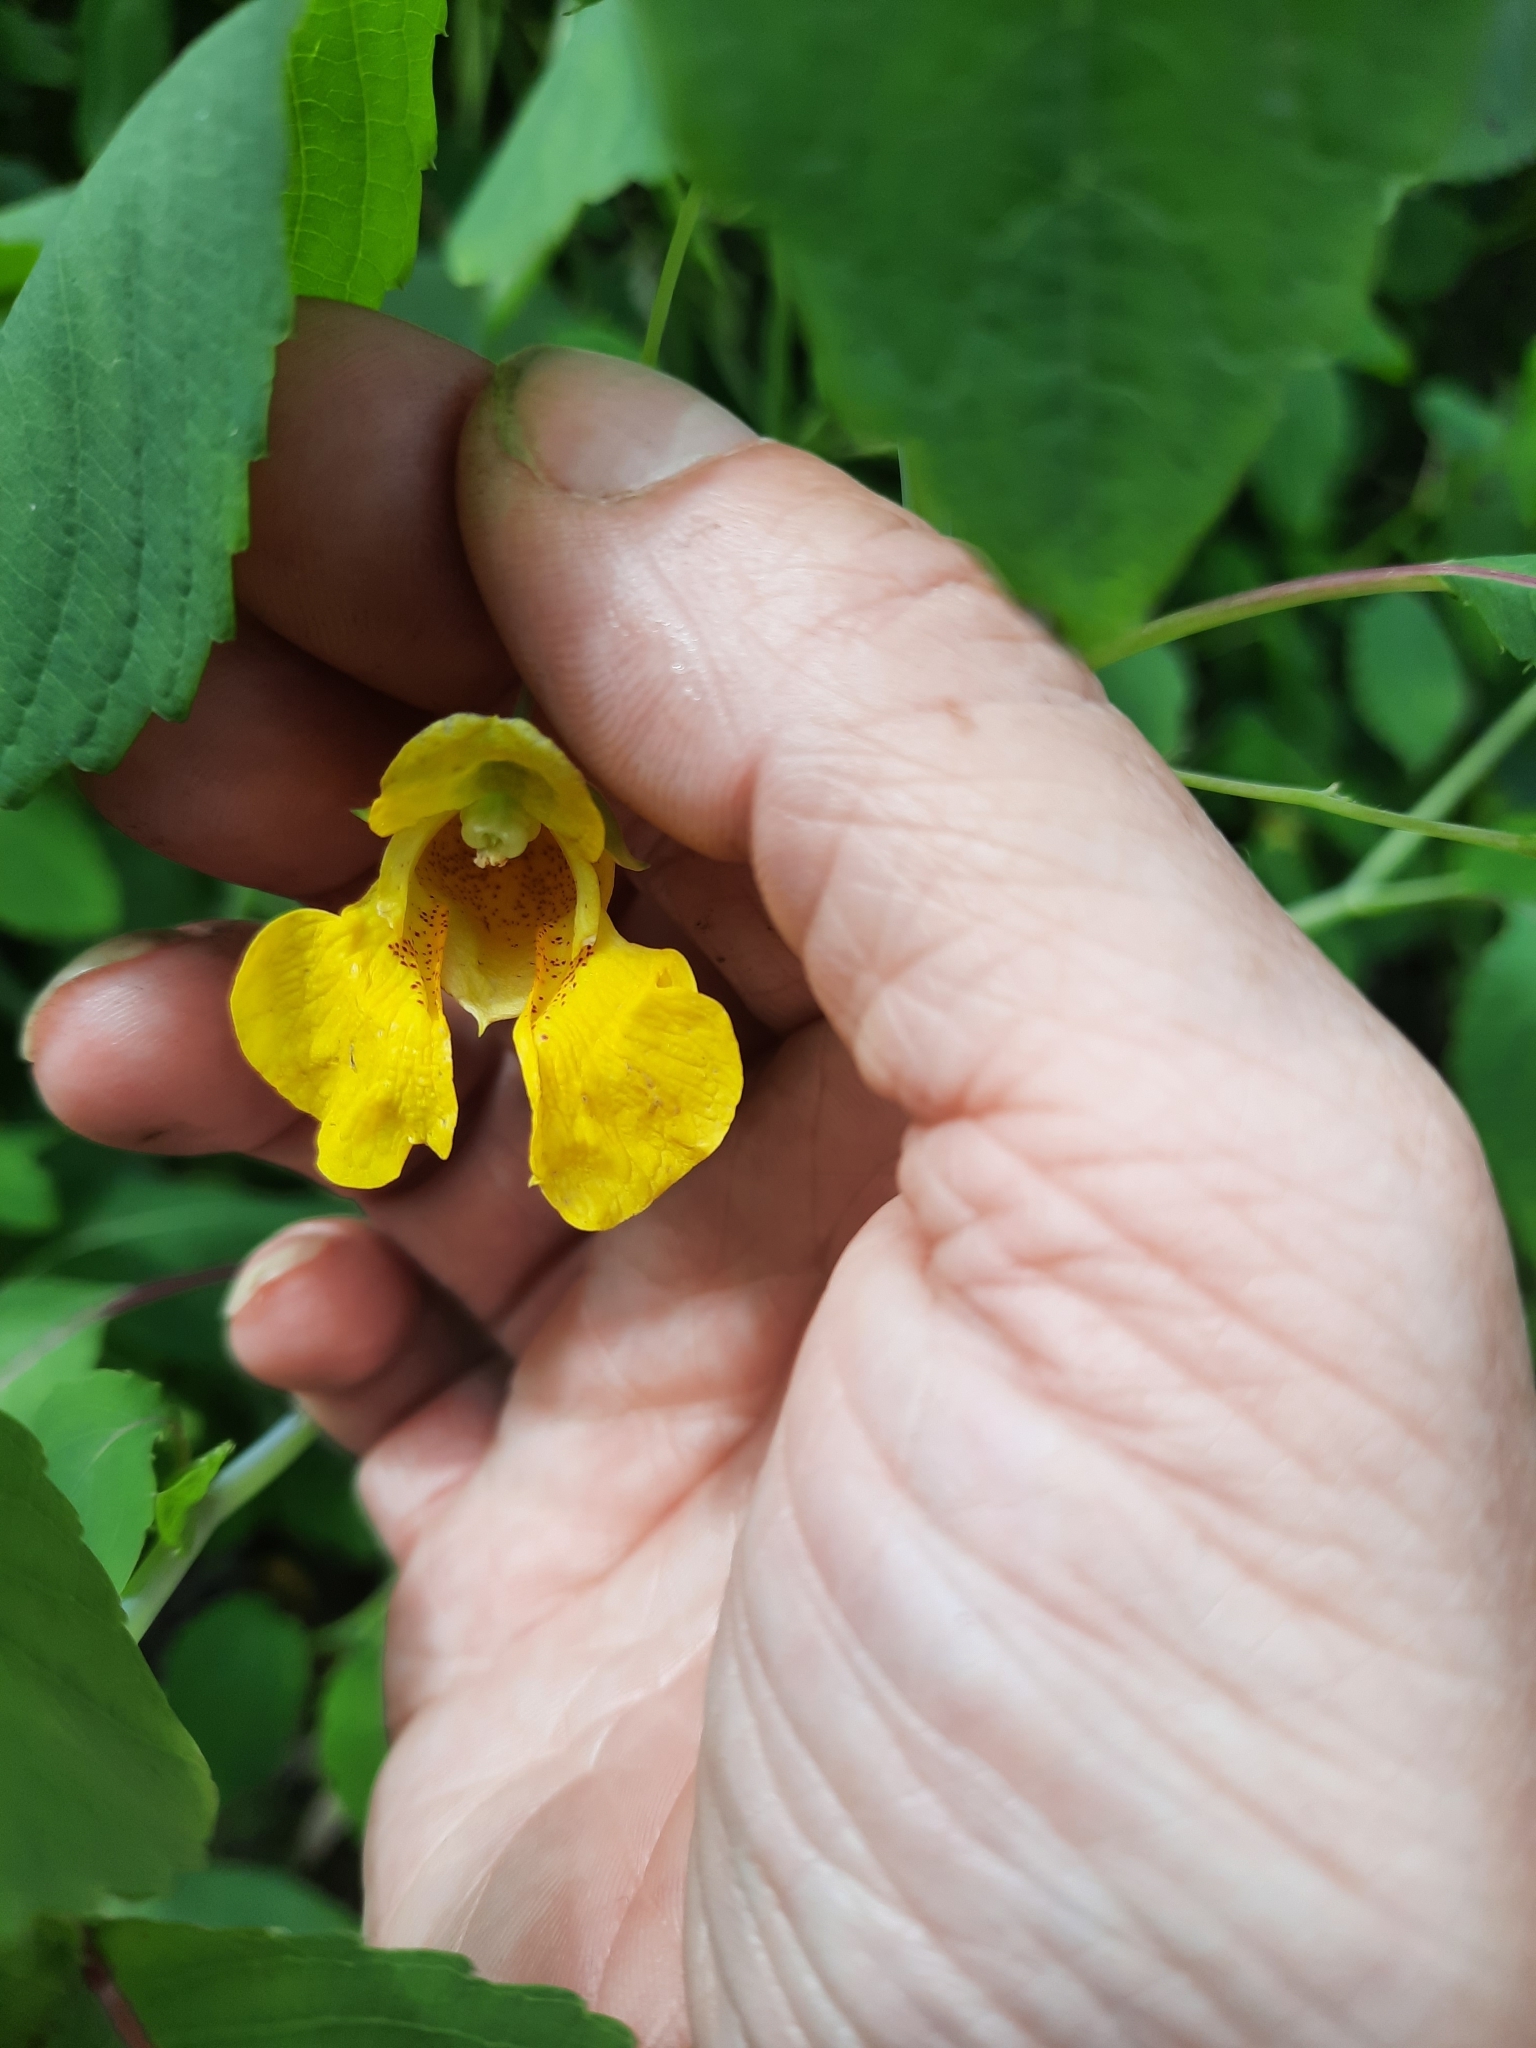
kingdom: Plantae
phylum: Tracheophyta
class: Magnoliopsida
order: Ericales
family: Balsaminaceae
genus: Impatiens
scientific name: Impatiens pallida
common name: Pale snapweed
